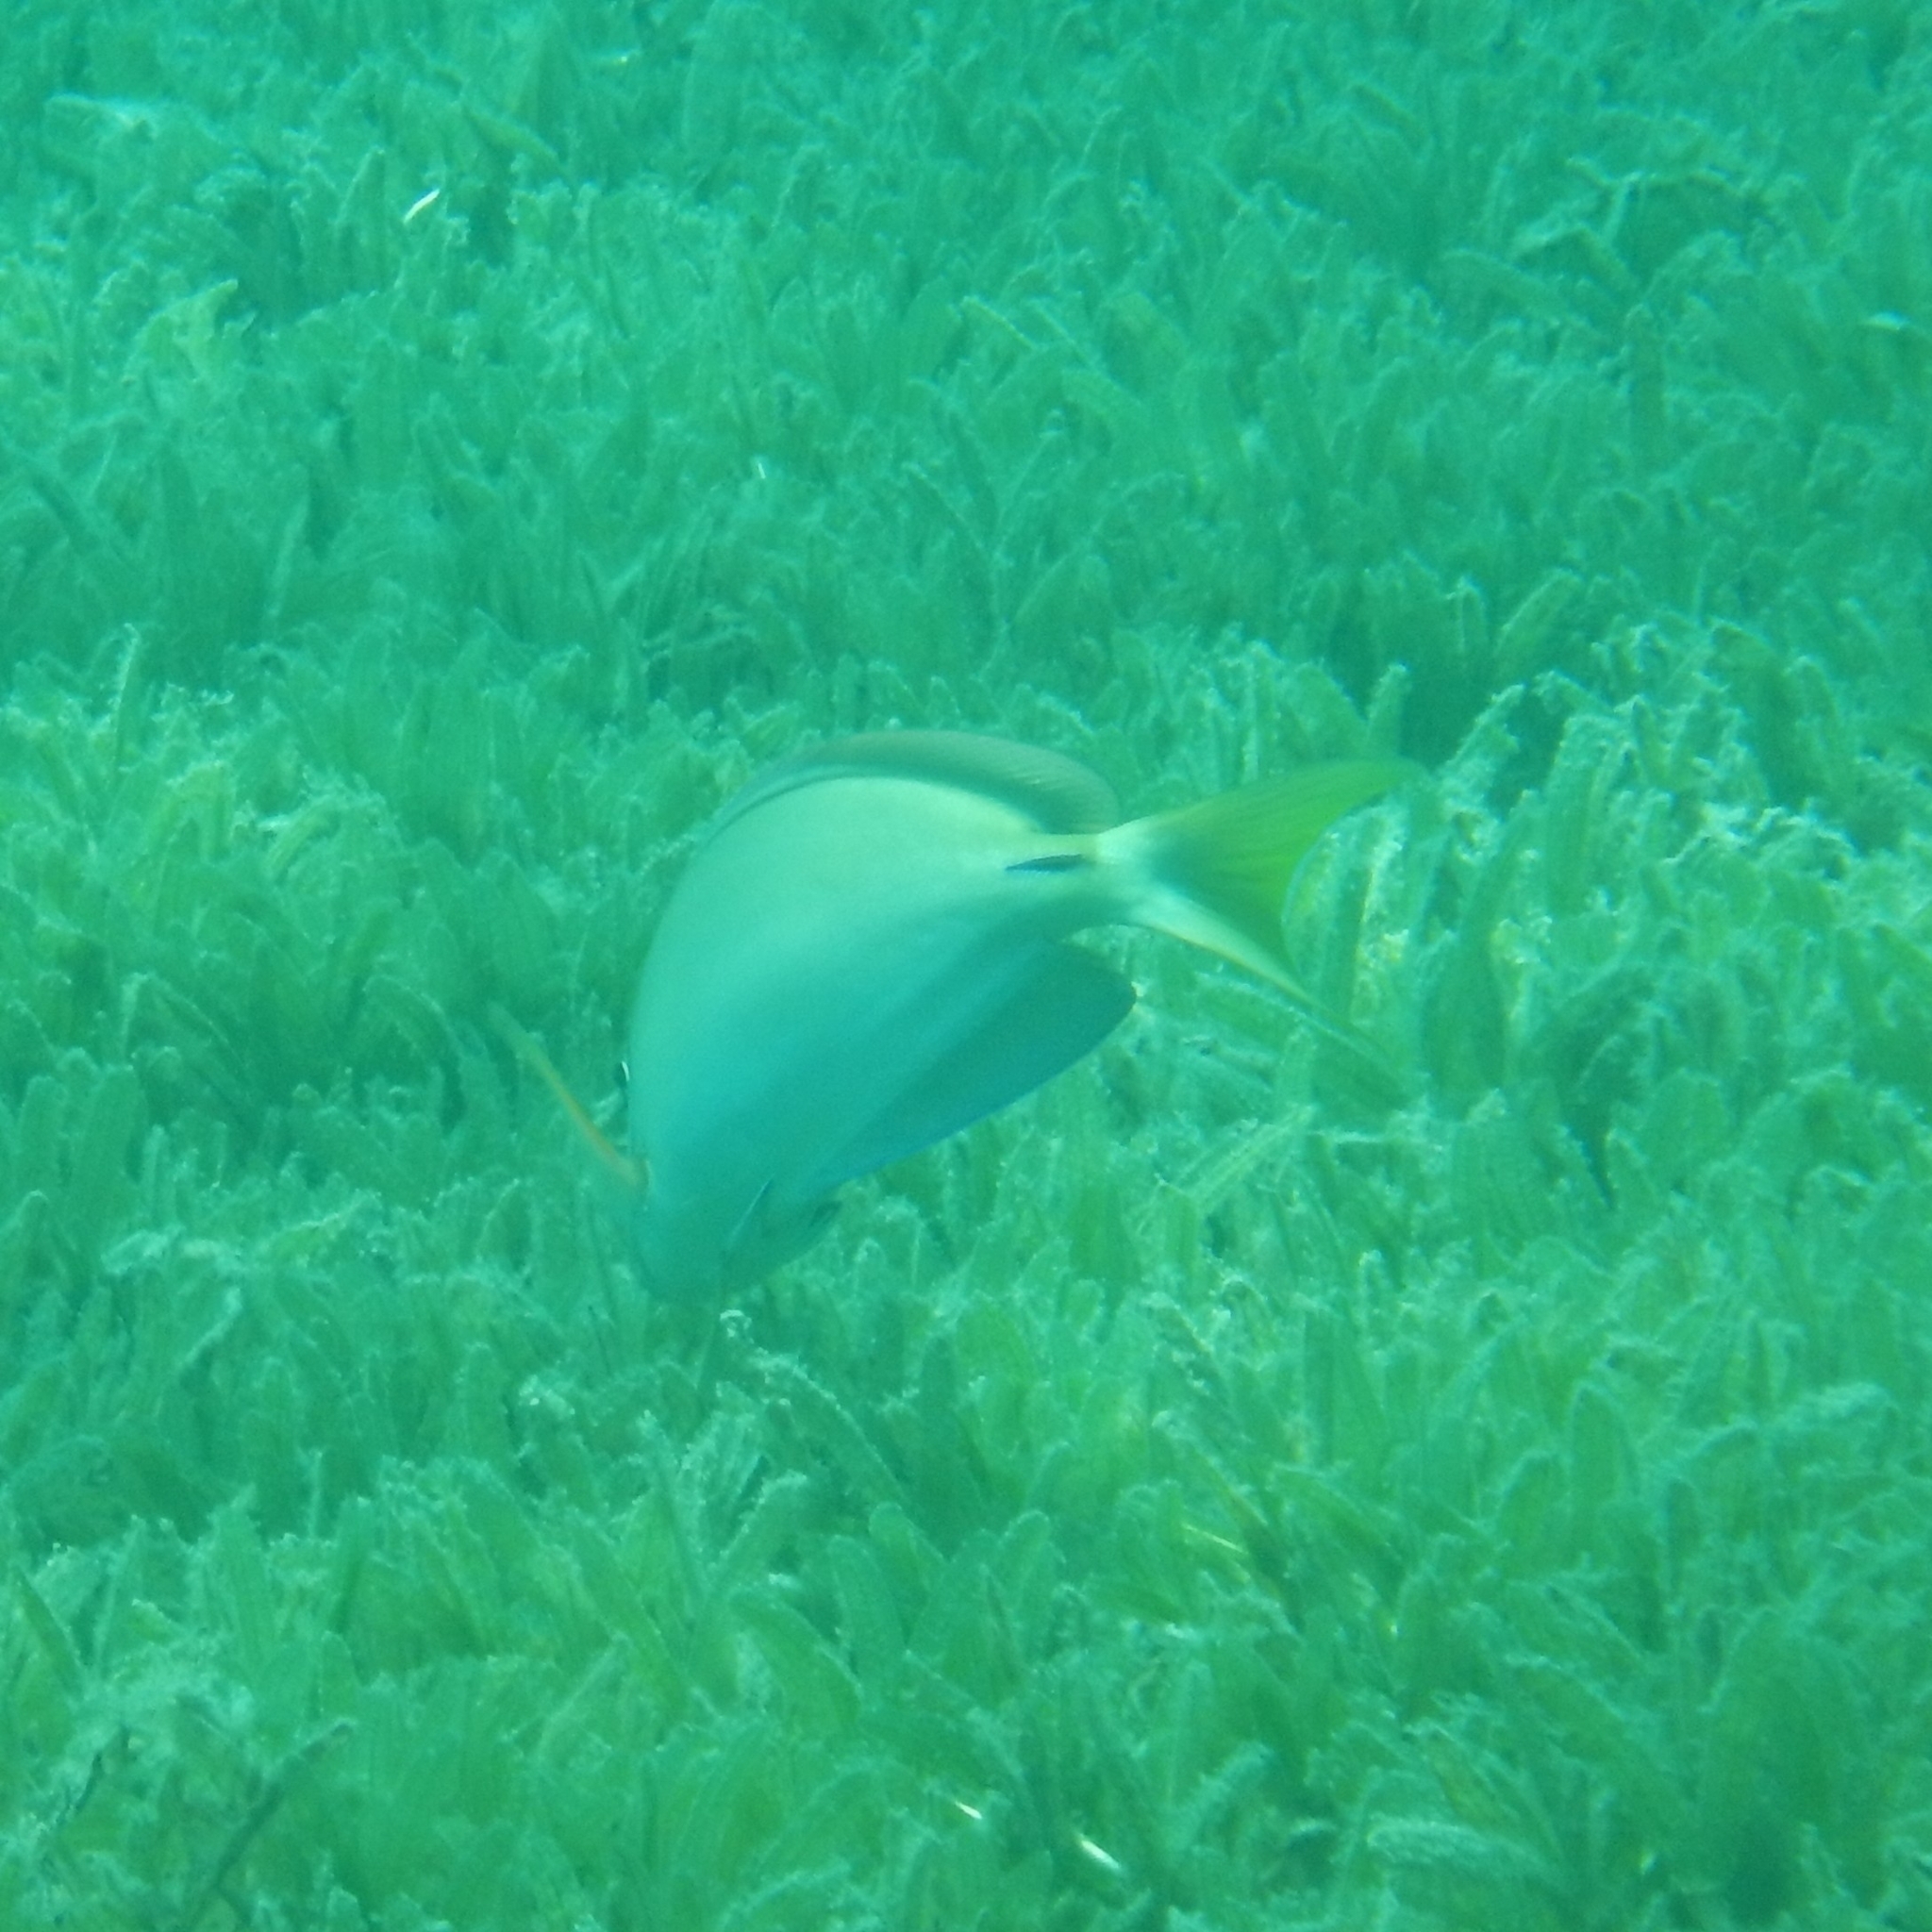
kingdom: Animalia
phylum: Chordata
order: Perciformes
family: Acanthuridae
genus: Acanthurus
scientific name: Acanthurus bahianus
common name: Ocean surgeon
